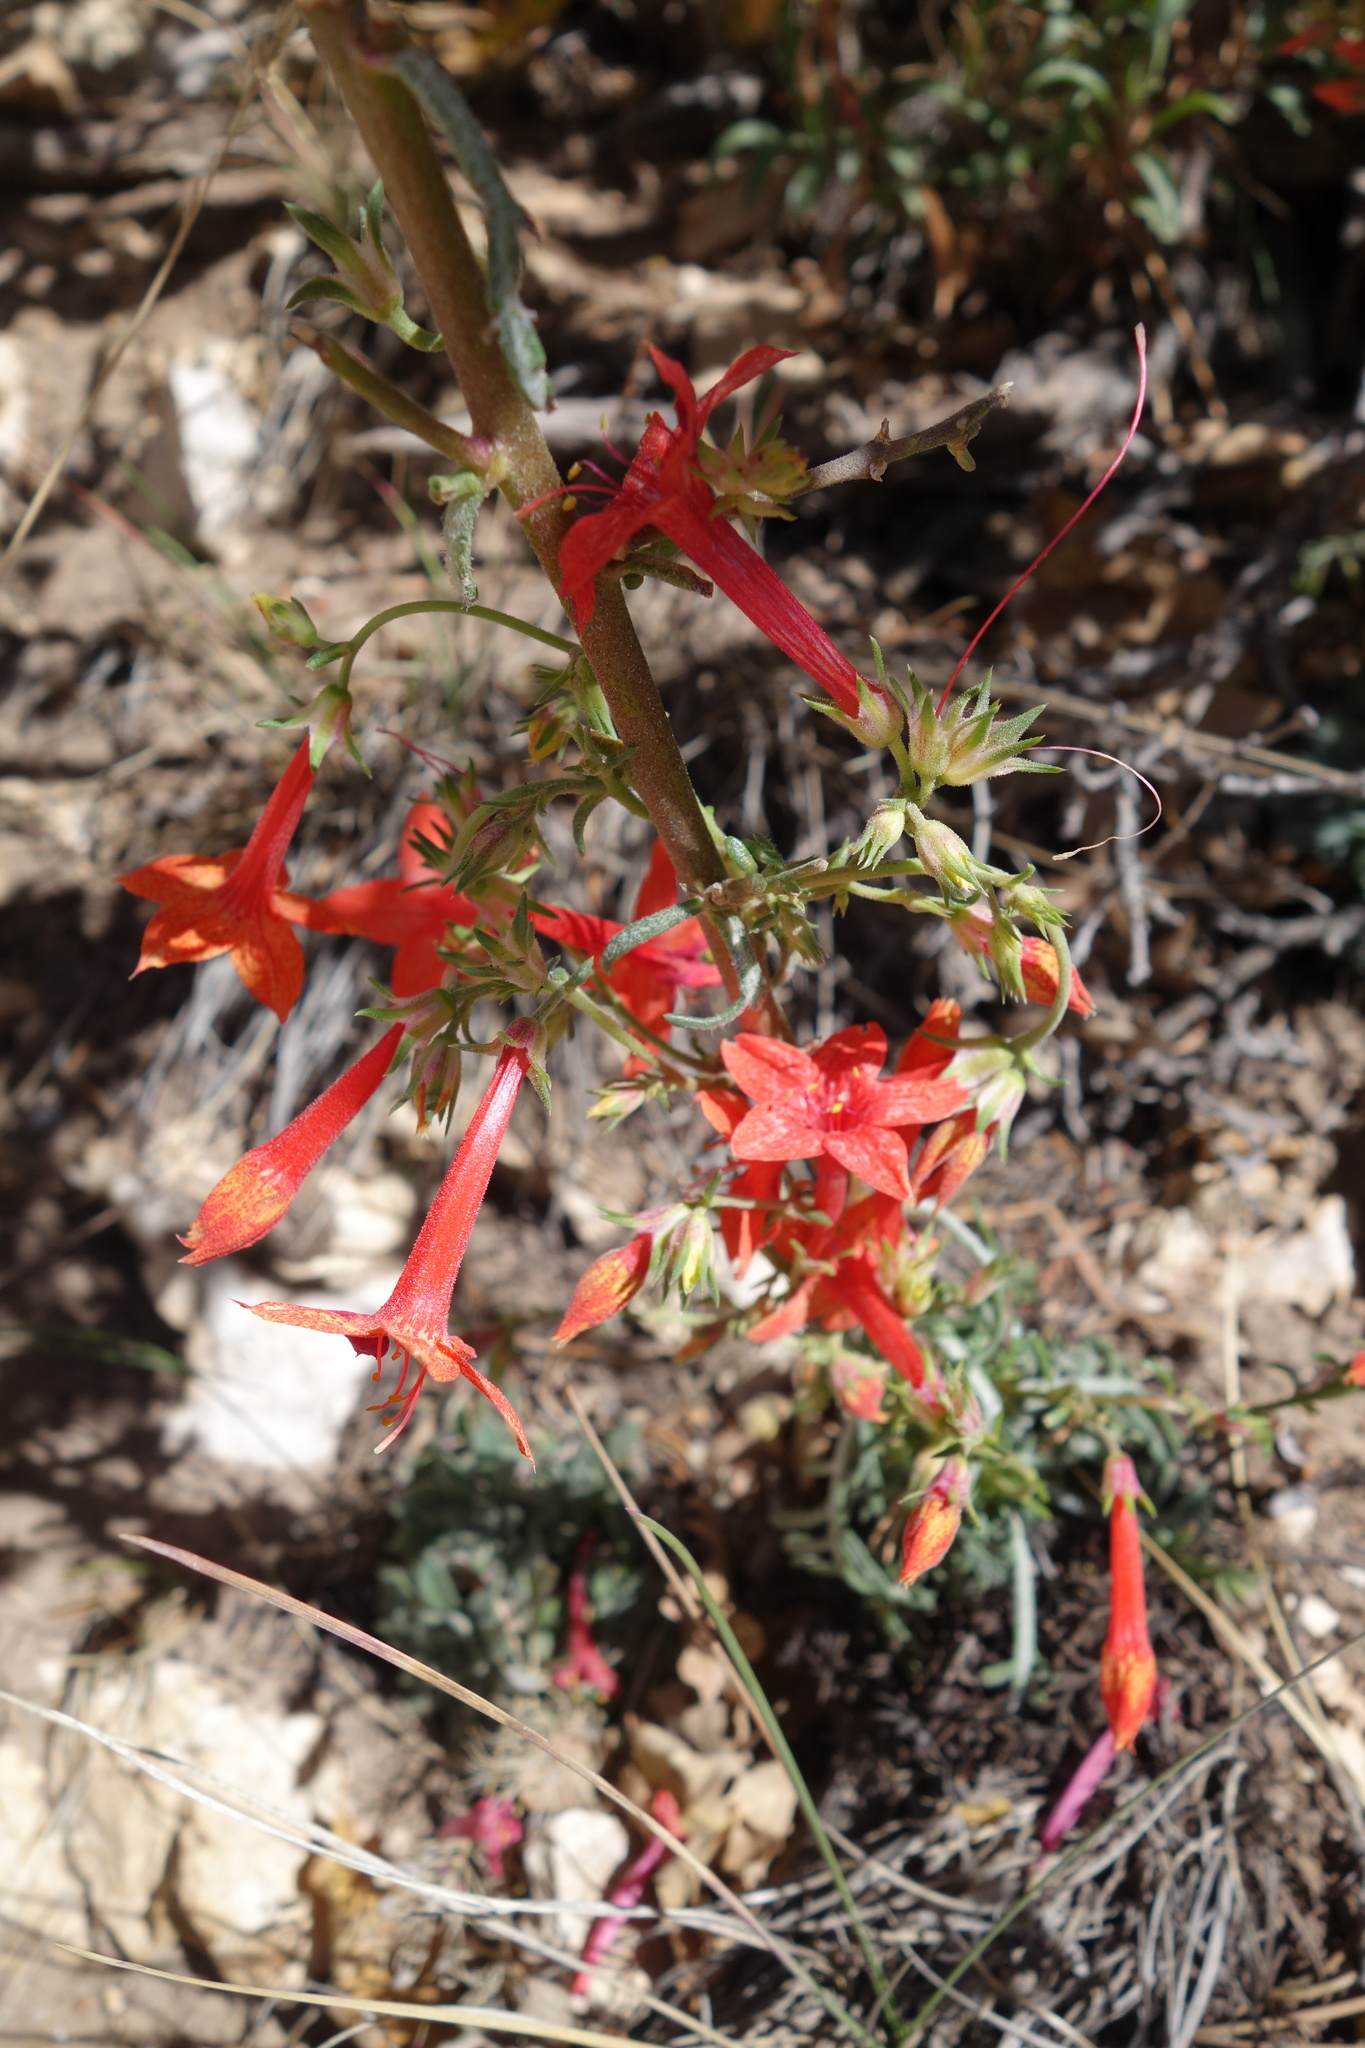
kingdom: Plantae
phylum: Tracheophyta
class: Magnoliopsida
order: Ericales
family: Polemoniaceae
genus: Ipomopsis
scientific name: Ipomopsis aggregata
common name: Scarlet gilia
